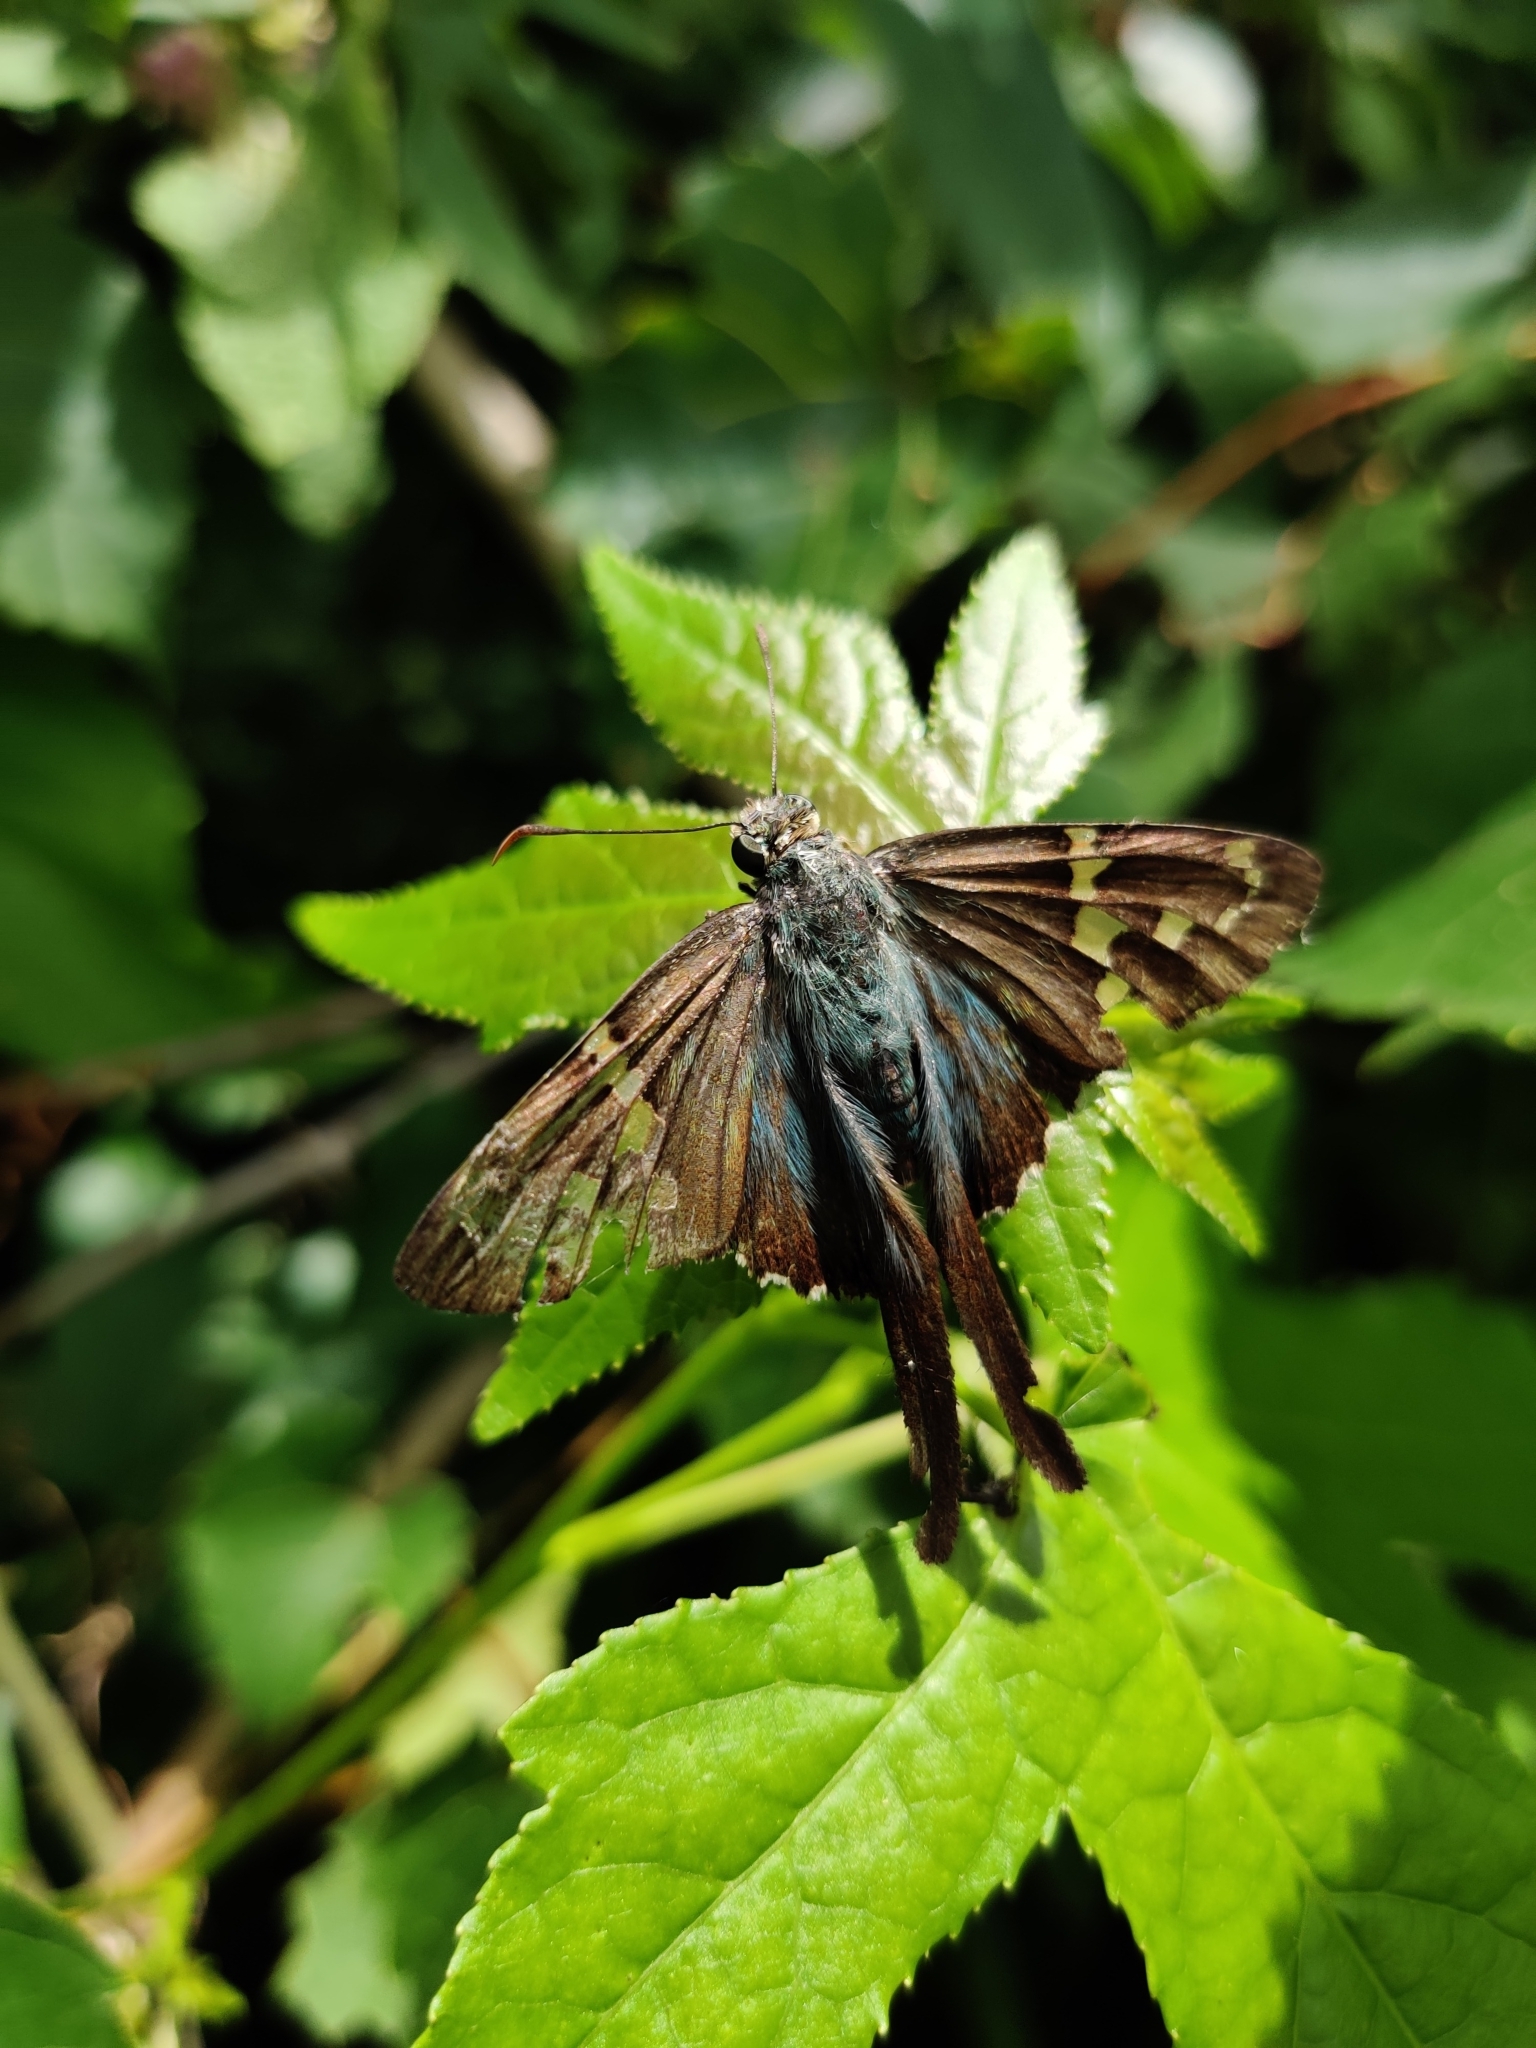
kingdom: Animalia
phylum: Arthropoda
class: Insecta
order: Lepidoptera
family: Hesperiidae
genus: Urbanus
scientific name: Urbanus proteus
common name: Long-tailed skipper
